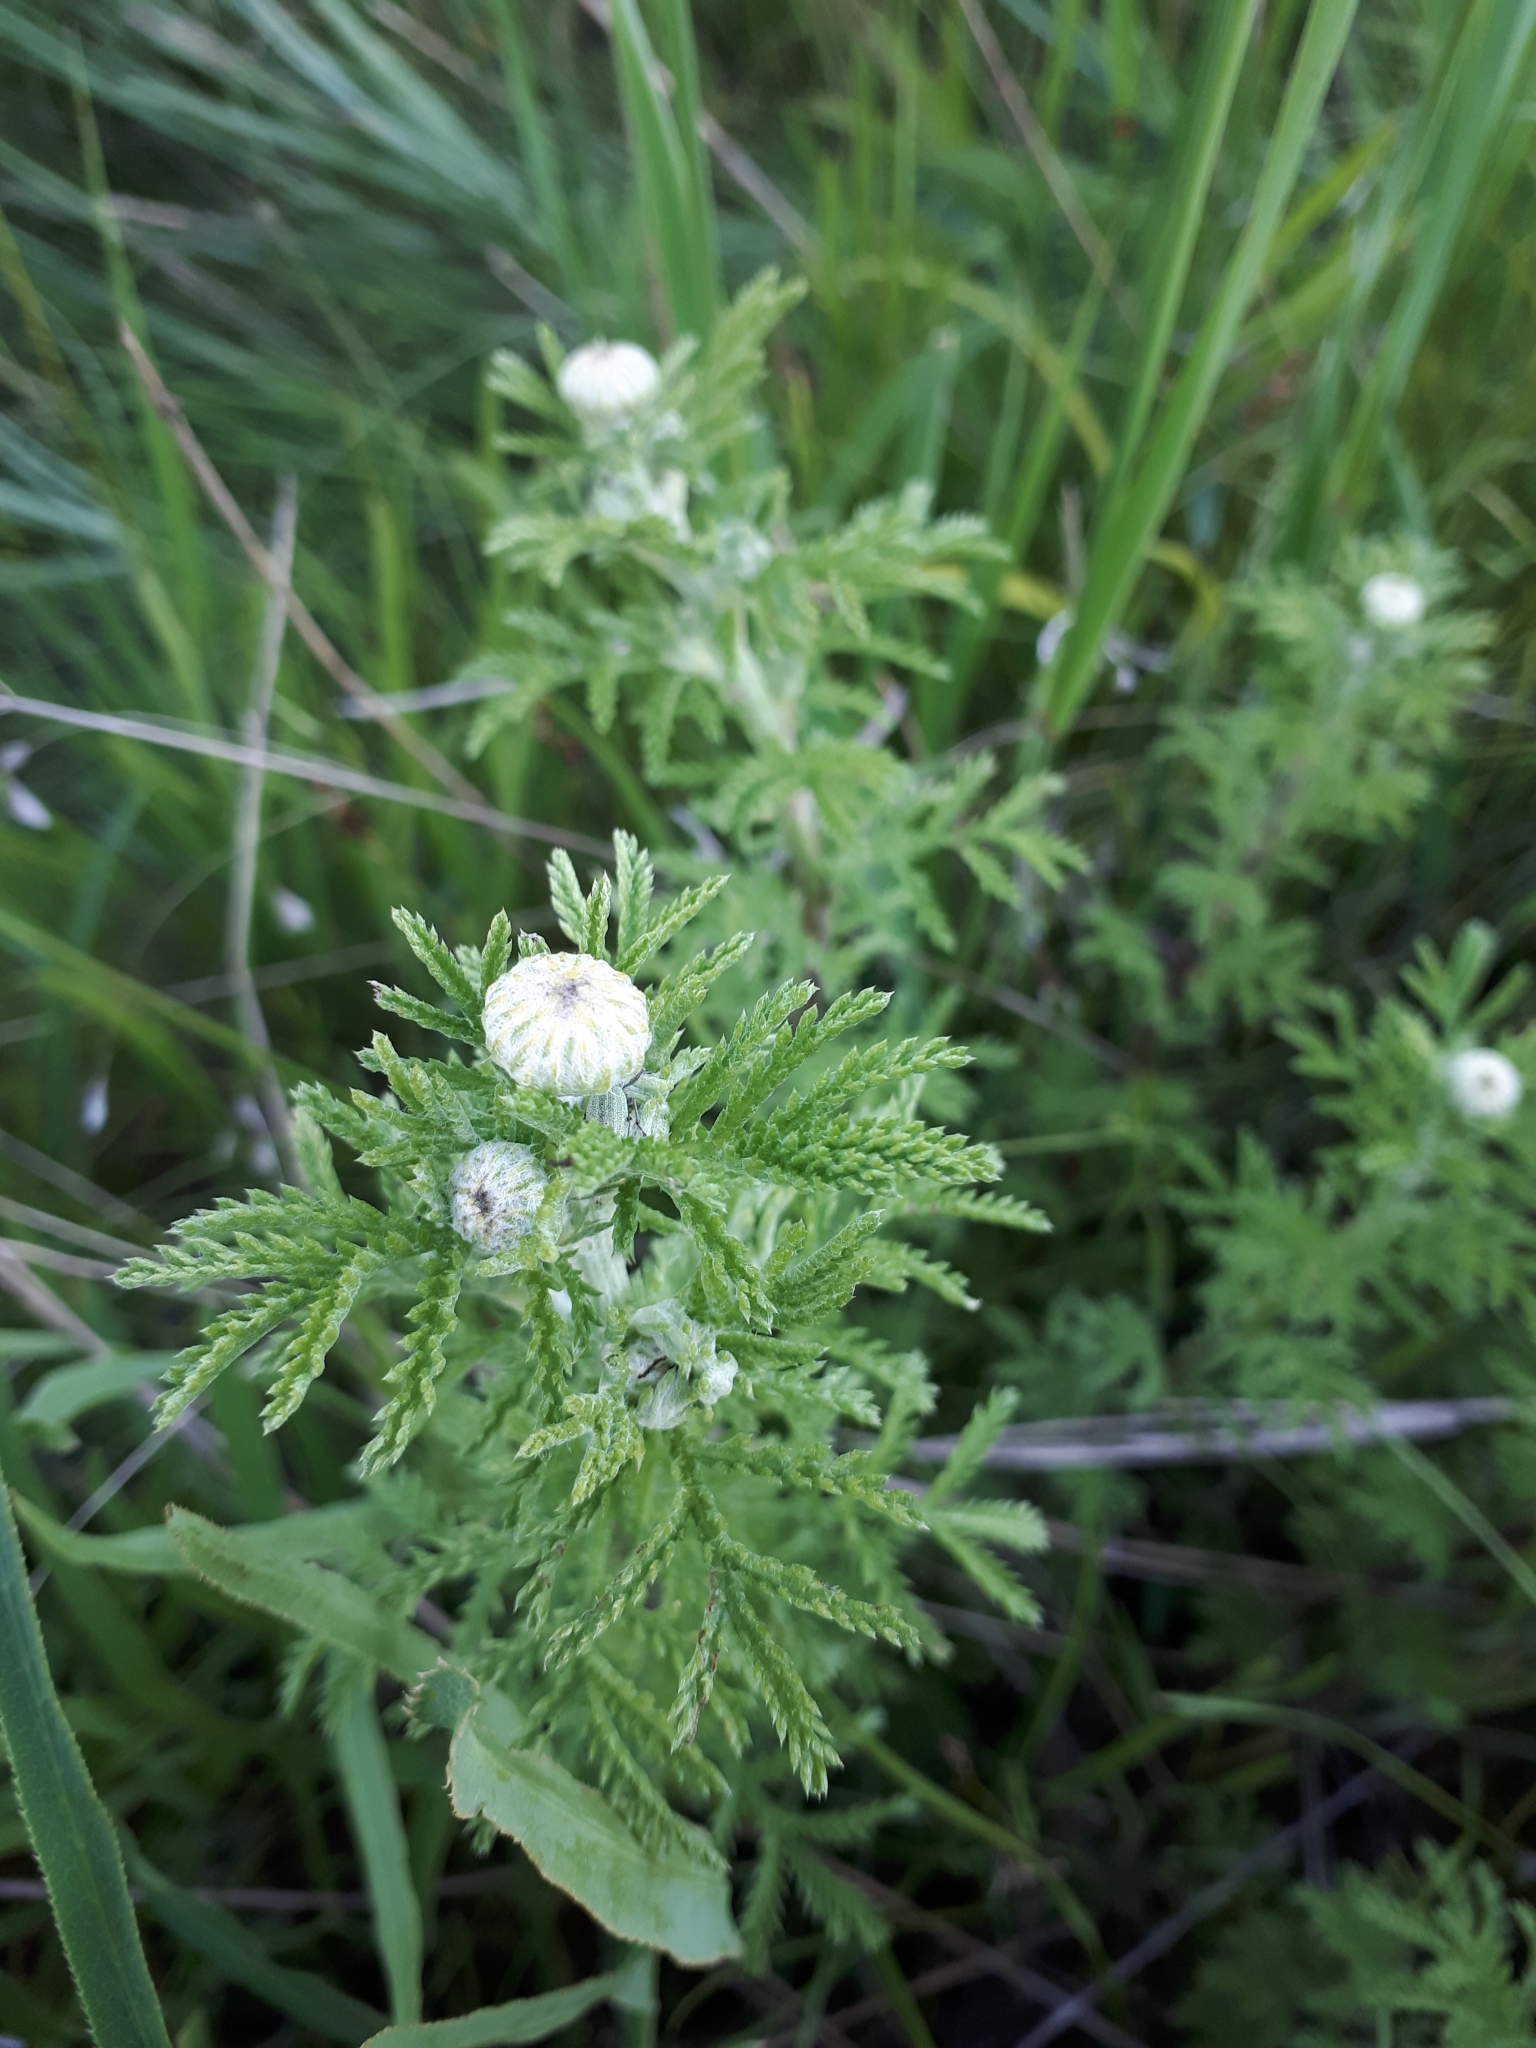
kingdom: Plantae
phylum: Tracheophyta
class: Magnoliopsida
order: Asterales
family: Asteraceae
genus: Cota
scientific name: Cota tinctoria
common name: Golden chamomile
